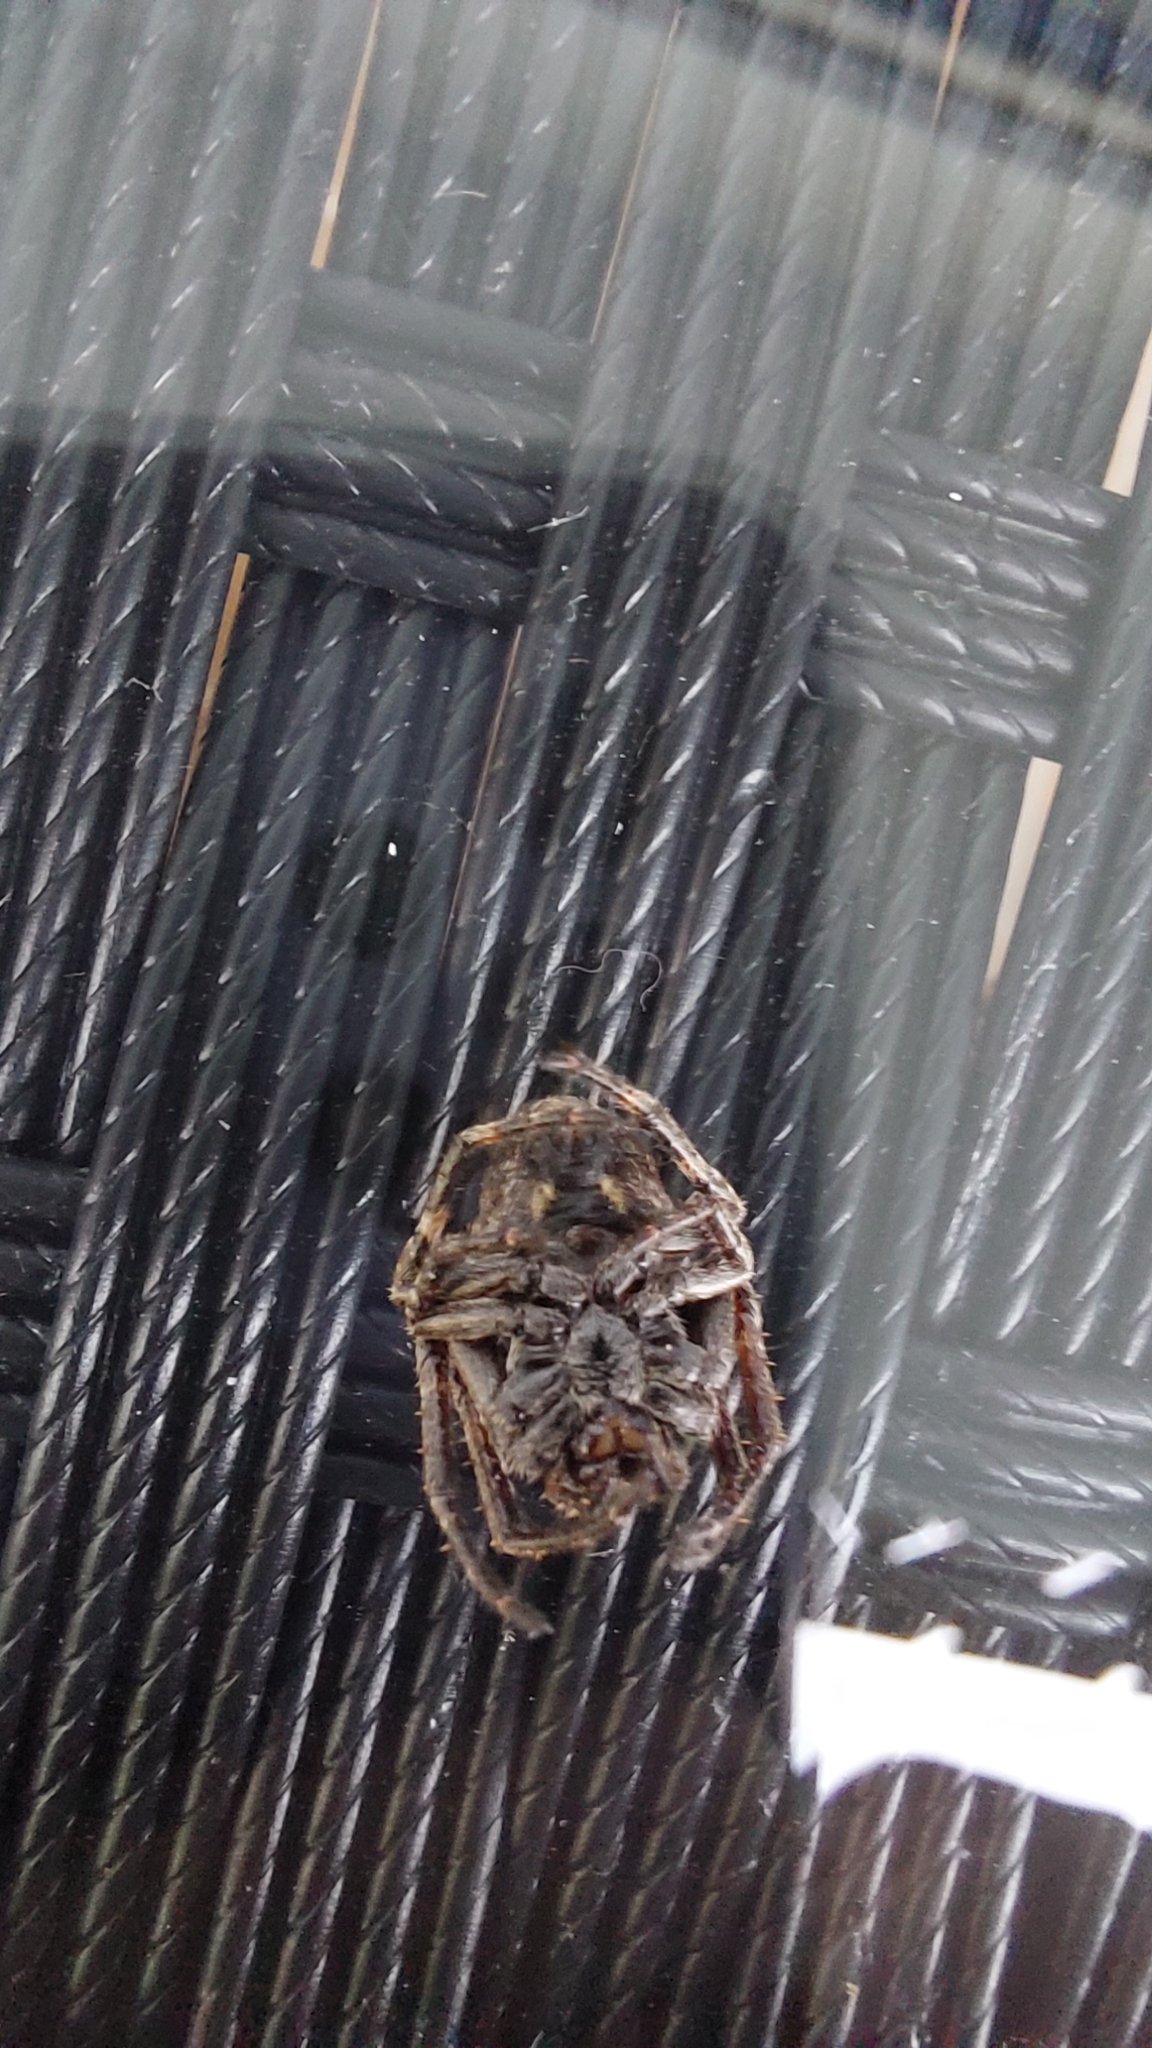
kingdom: Animalia
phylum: Arthropoda
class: Arachnida
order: Araneae
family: Araneidae
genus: Nuctenea
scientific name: Nuctenea umbratica
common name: Toad spider
